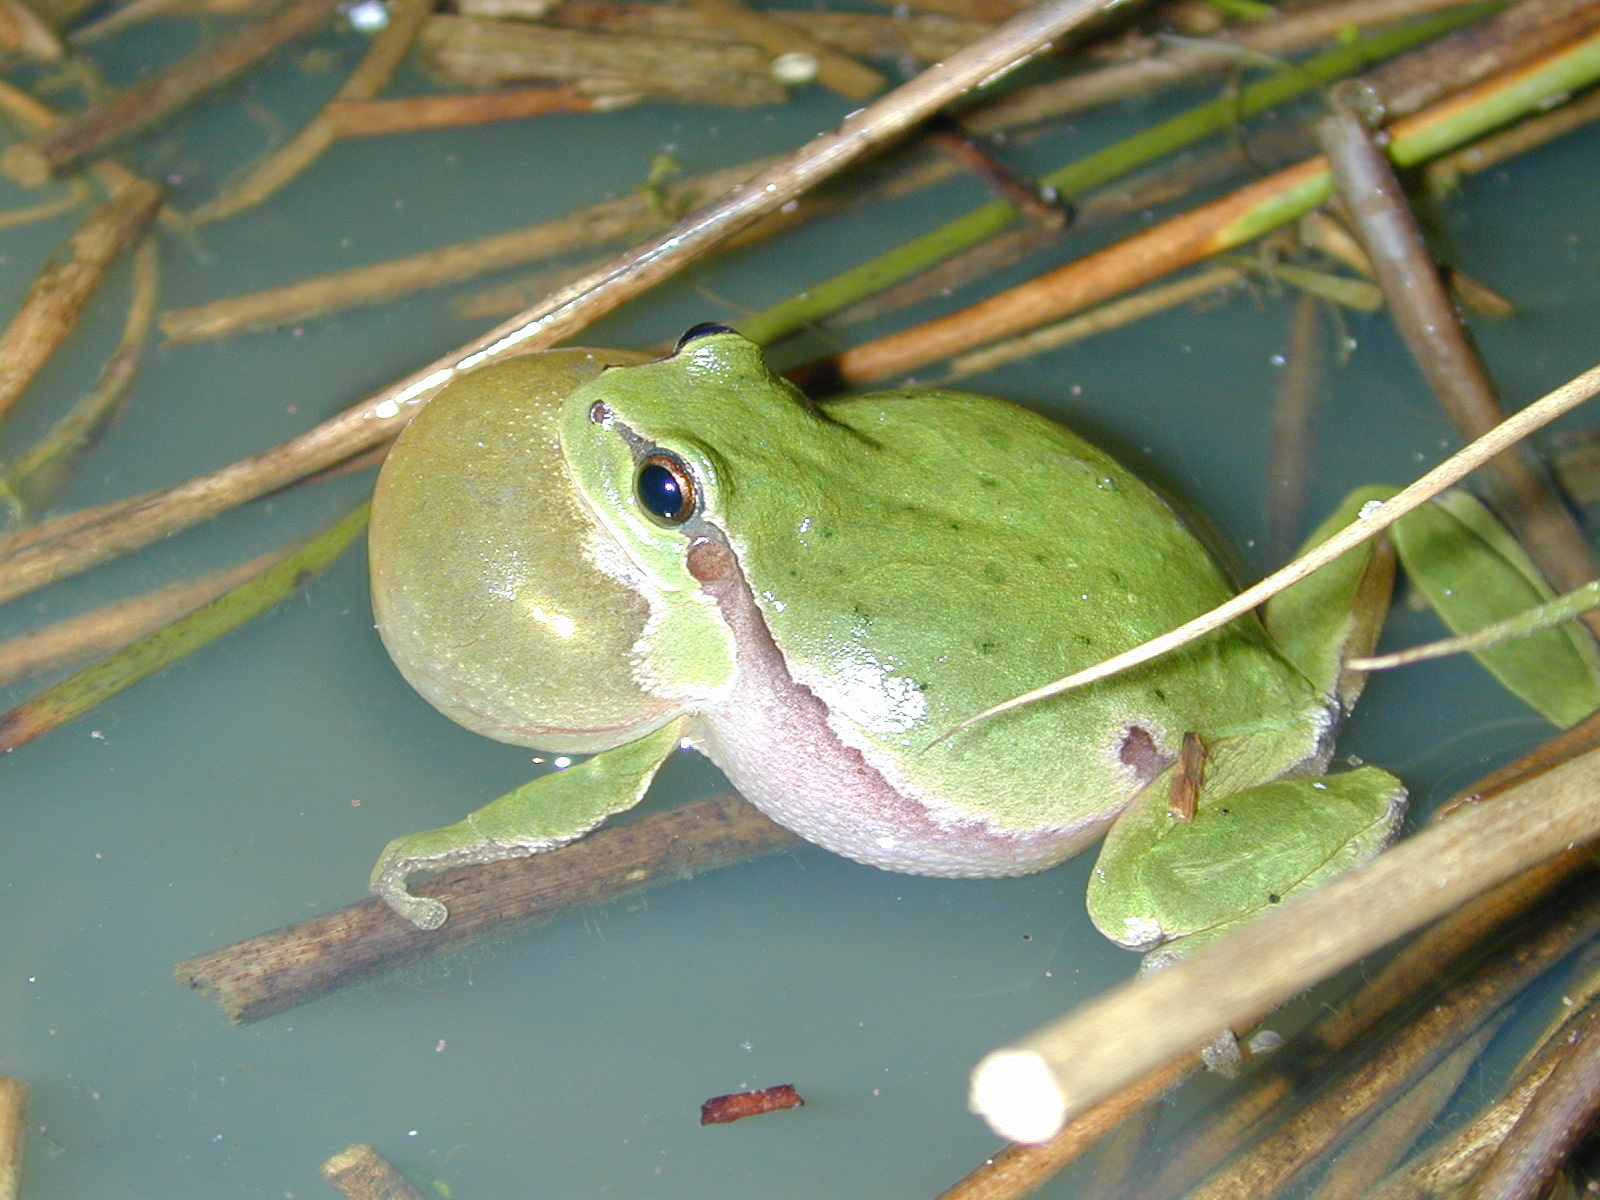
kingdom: Animalia
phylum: Chordata
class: Amphibia
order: Anura
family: Hylidae
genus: Hyla
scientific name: Hyla arborea
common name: Common tree frog
